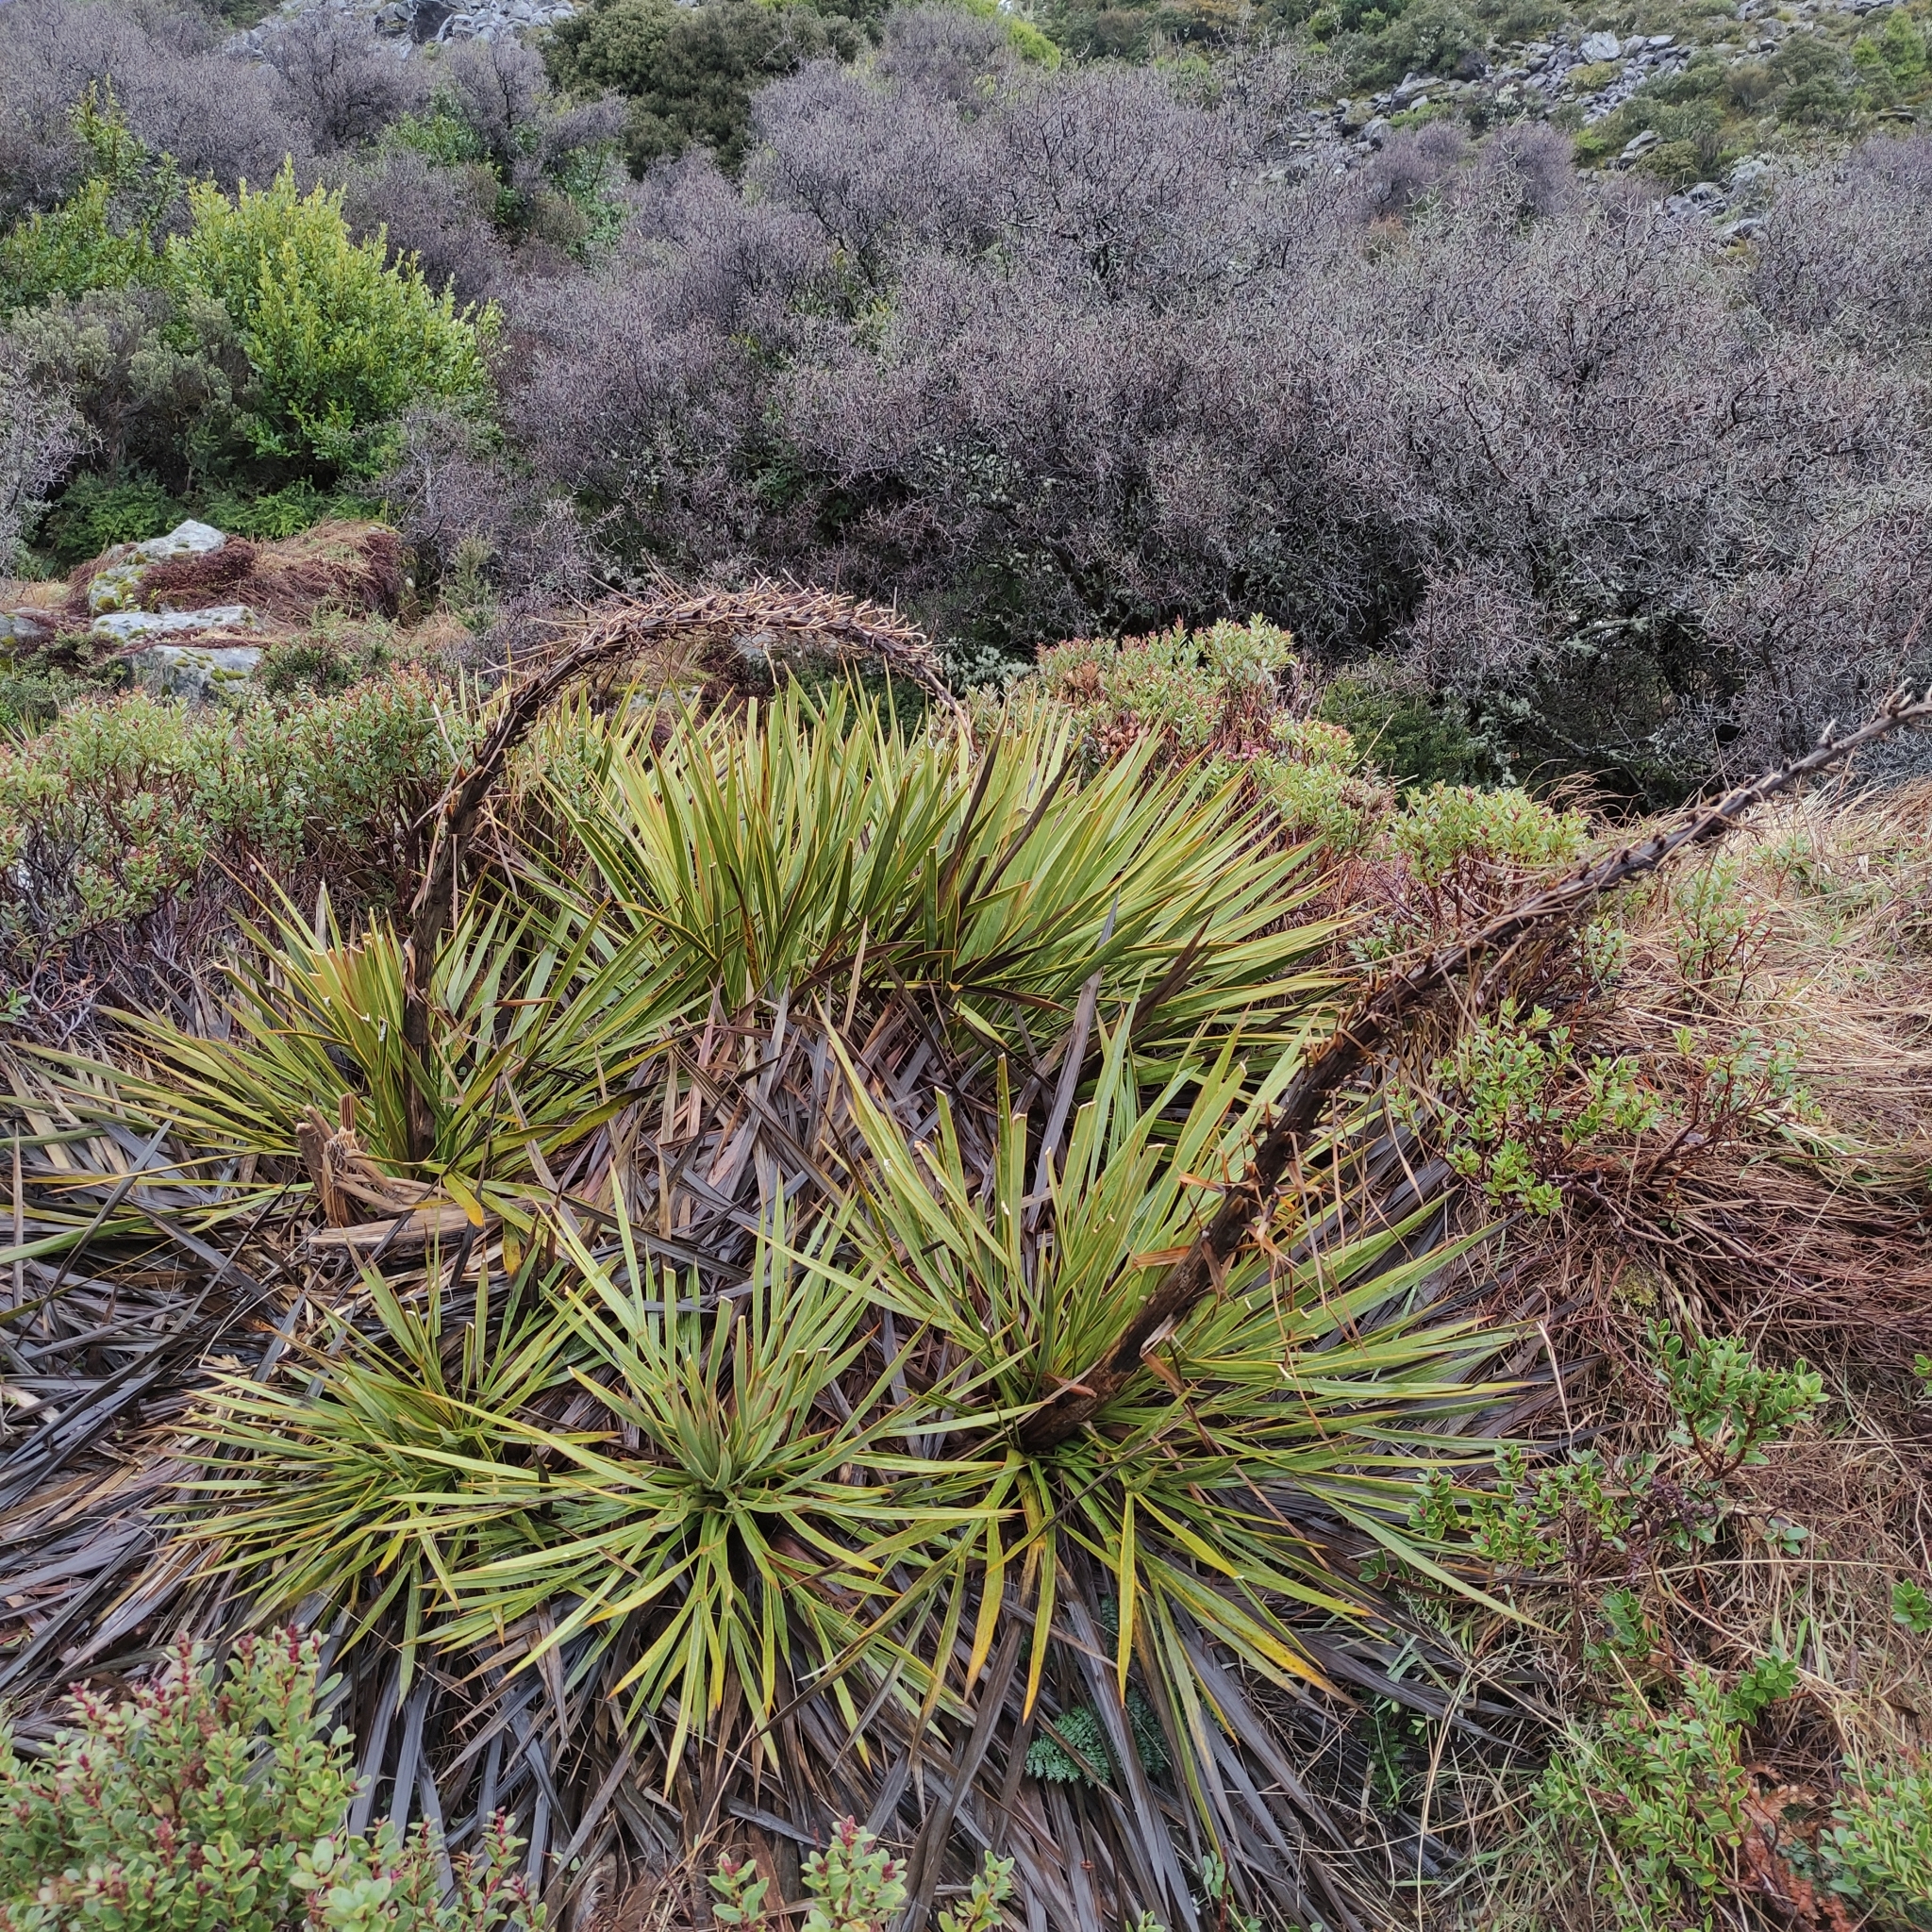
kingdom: Plantae
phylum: Tracheophyta
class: Magnoliopsida
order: Apiales
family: Apiaceae
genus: Aciphylla
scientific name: Aciphylla aurea
